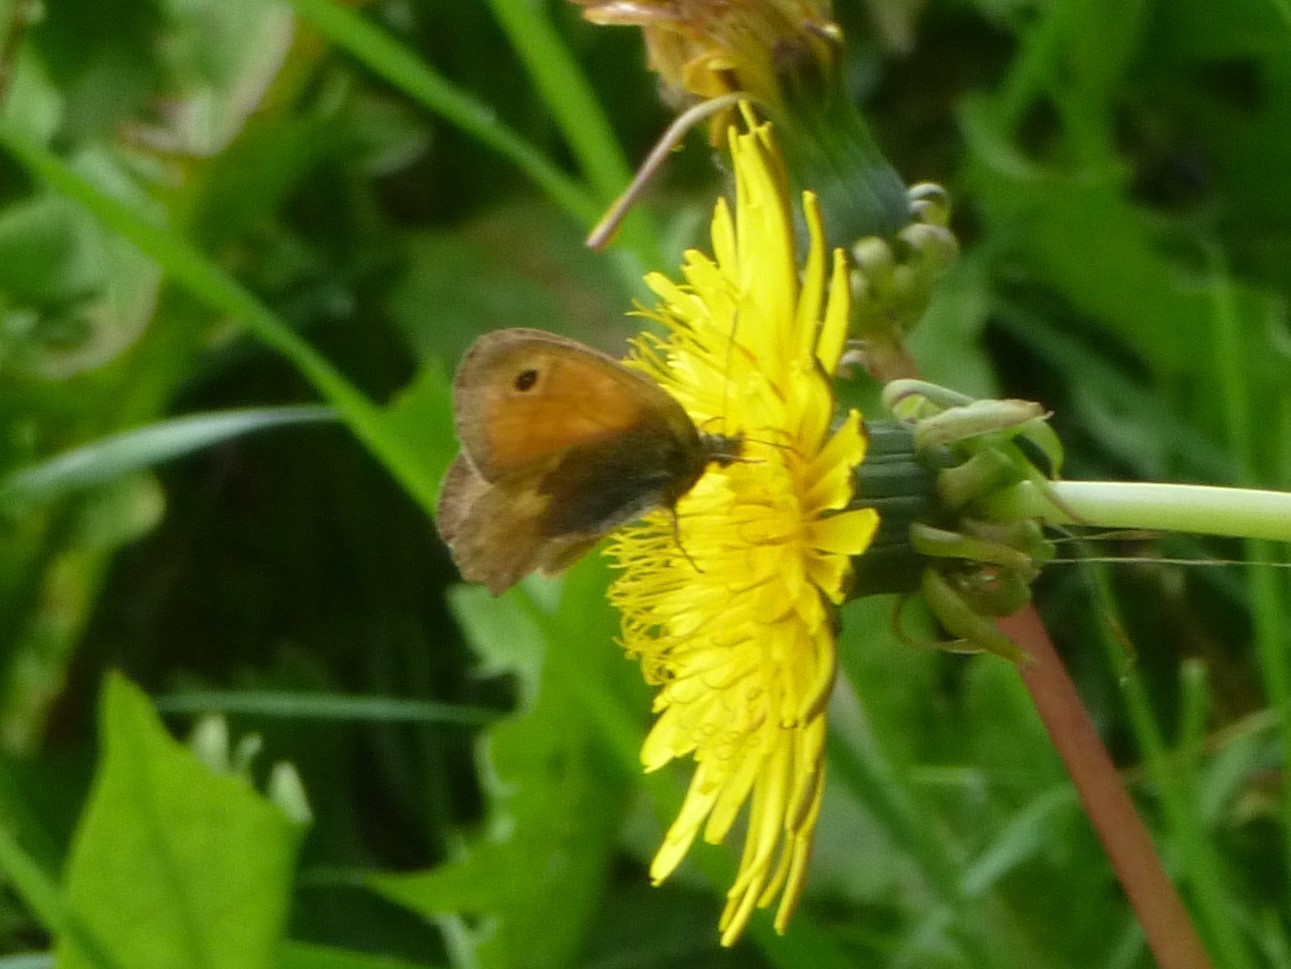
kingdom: Animalia
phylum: Arthropoda
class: Insecta
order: Lepidoptera
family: Nymphalidae
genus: Coenonympha
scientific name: Coenonympha pamphilus
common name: Small heath
